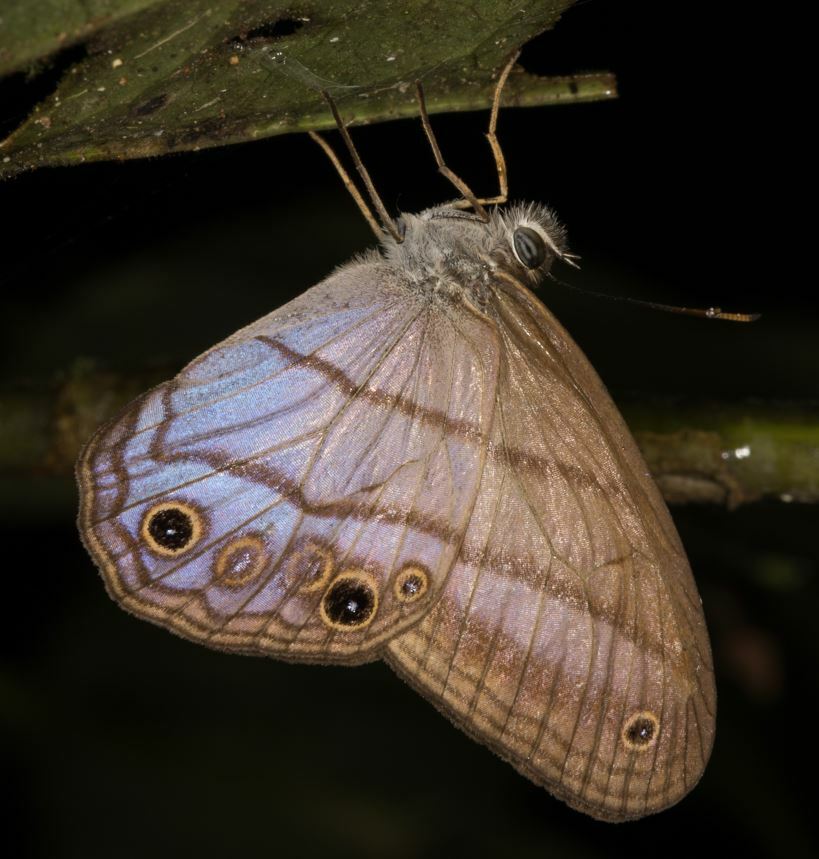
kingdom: Animalia
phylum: Arthropoda
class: Insecta
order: Lepidoptera
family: Nymphalidae
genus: Amiga
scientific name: Amiga arnaca
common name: Blue-topped satyr
